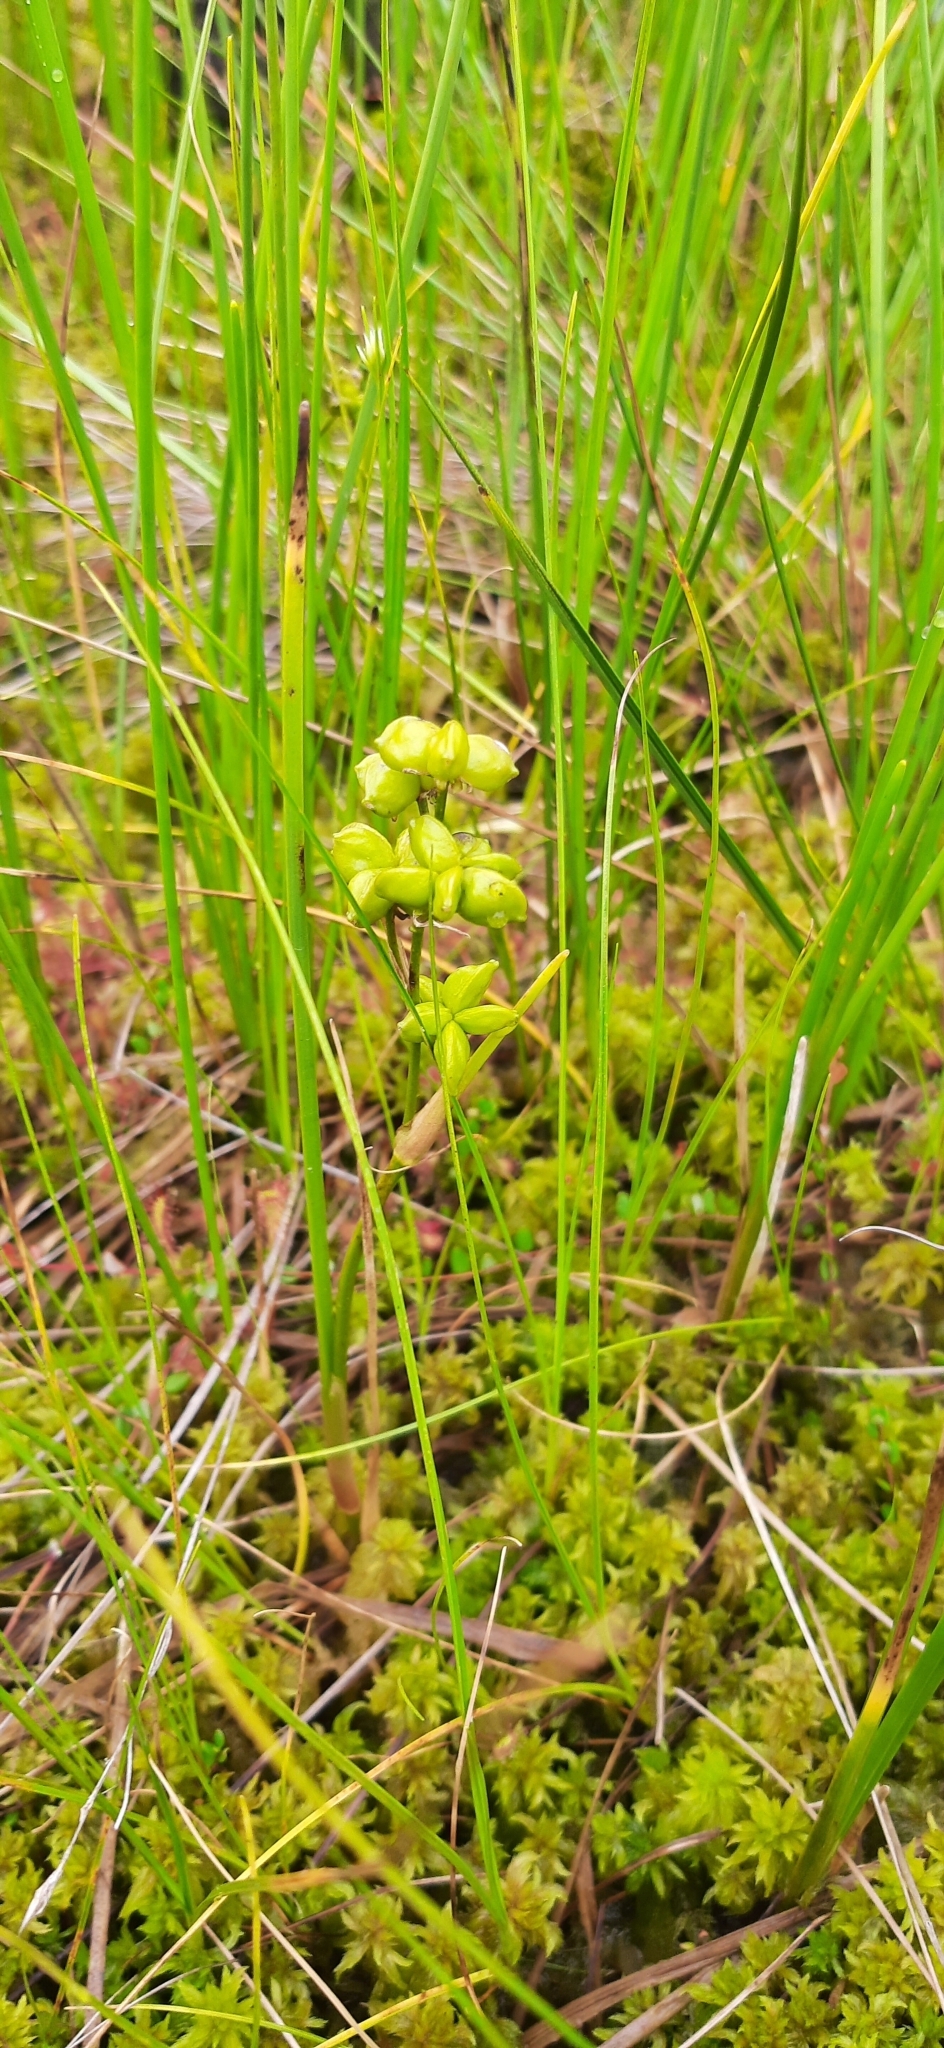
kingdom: Plantae
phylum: Tracheophyta
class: Liliopsida
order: Alismatales
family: Scheuchzeriaceae
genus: Scheuchzeria
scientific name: Scheuchzeria palustris
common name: Rannoch-rush
